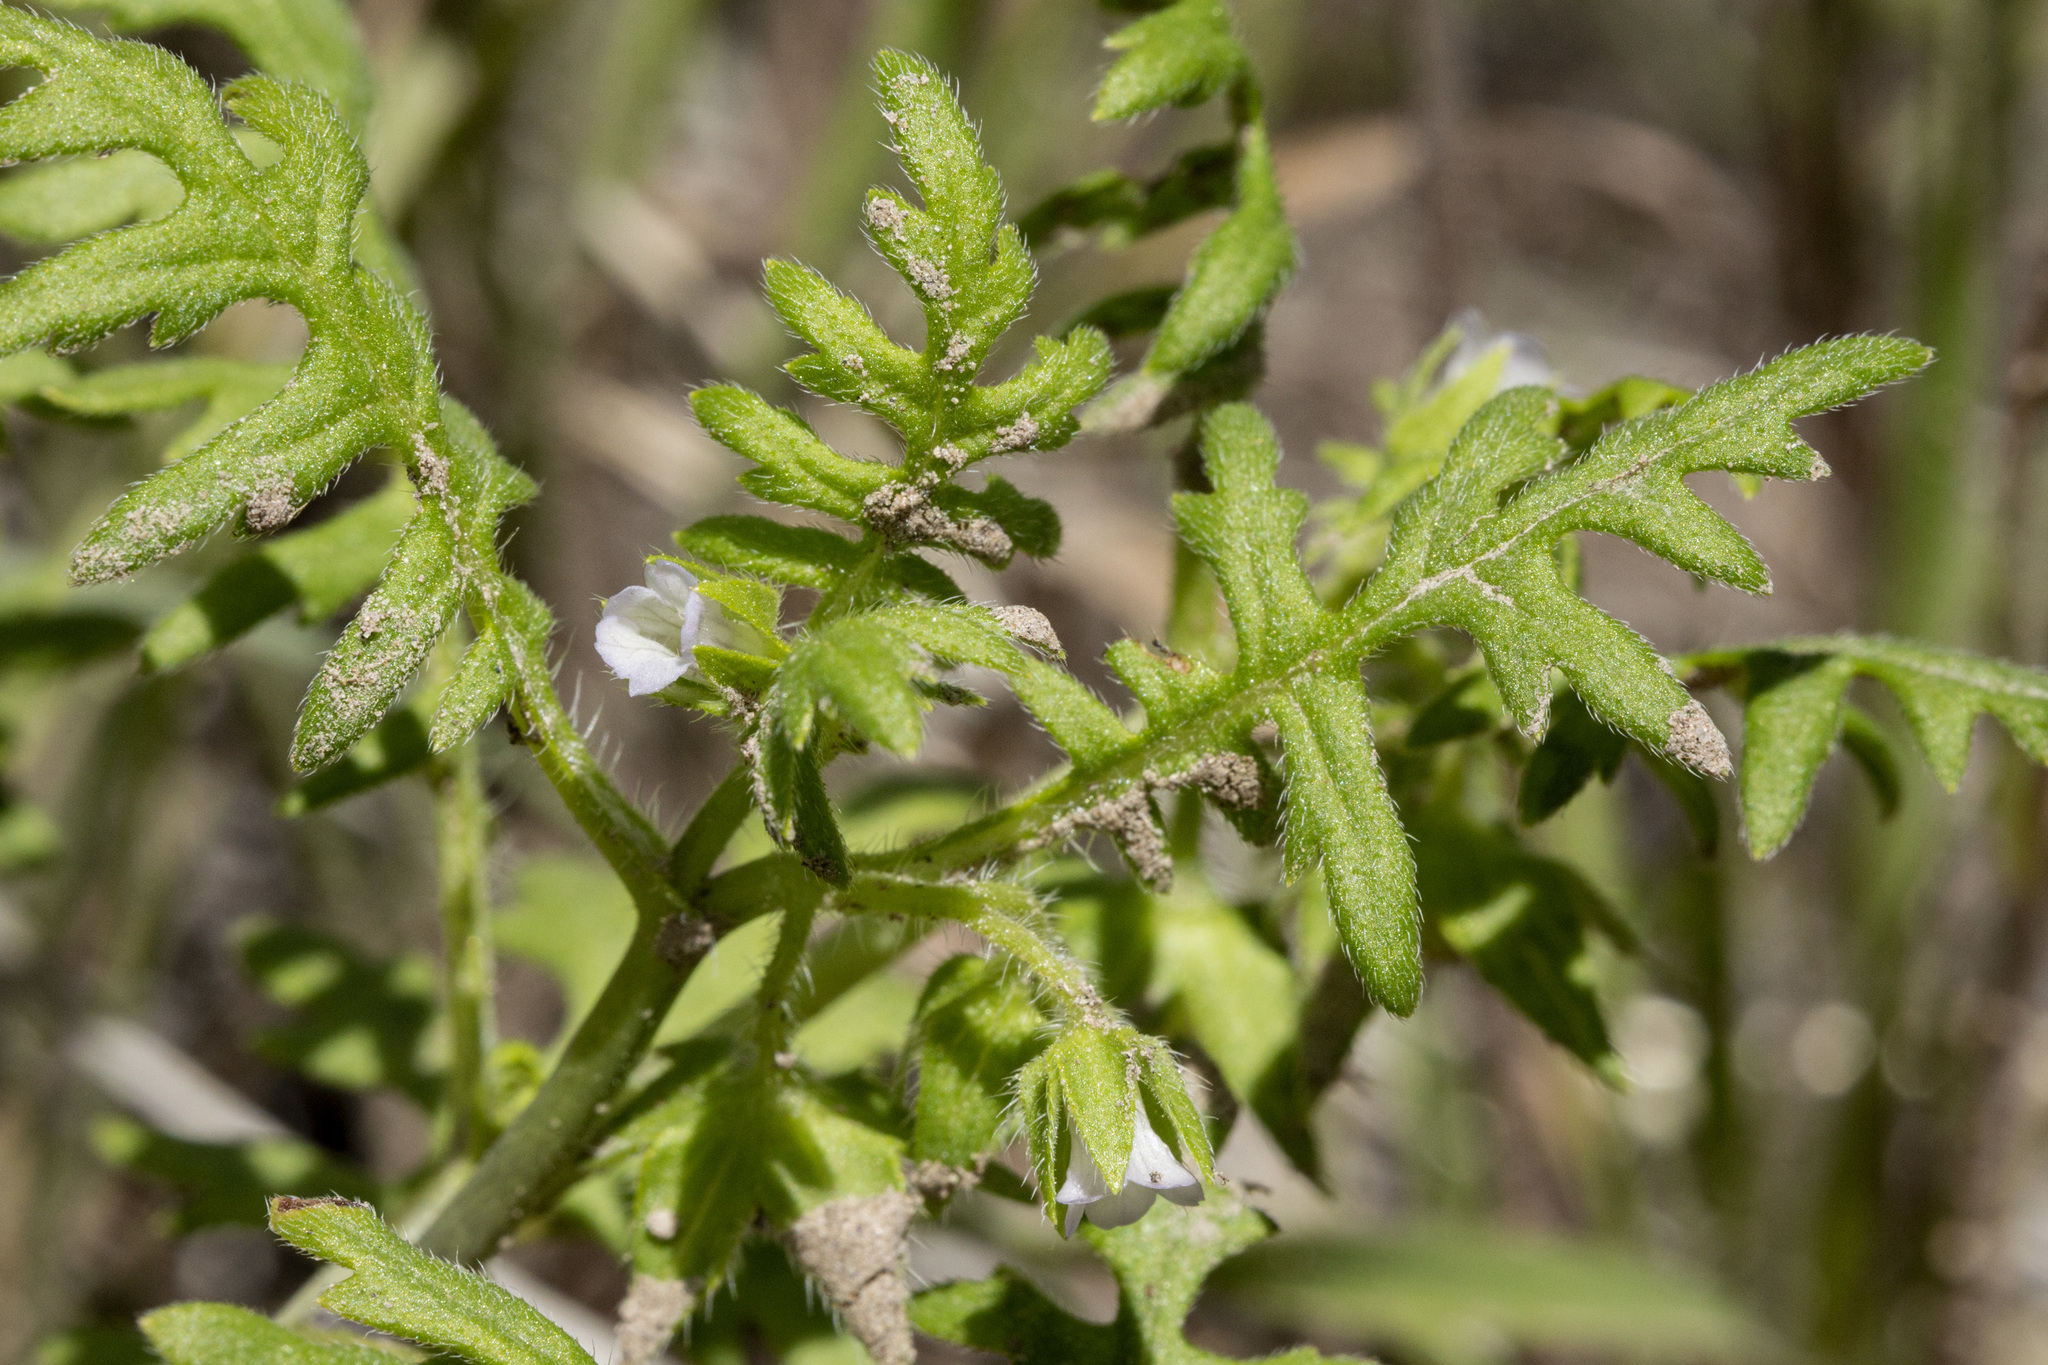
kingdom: Plantae
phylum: Tracheophyta
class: Magnoliopsida
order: Boraginales
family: Hydrophyllaceae
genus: Ellisia
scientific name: Ellisia nyctelea
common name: Aunt lucy
